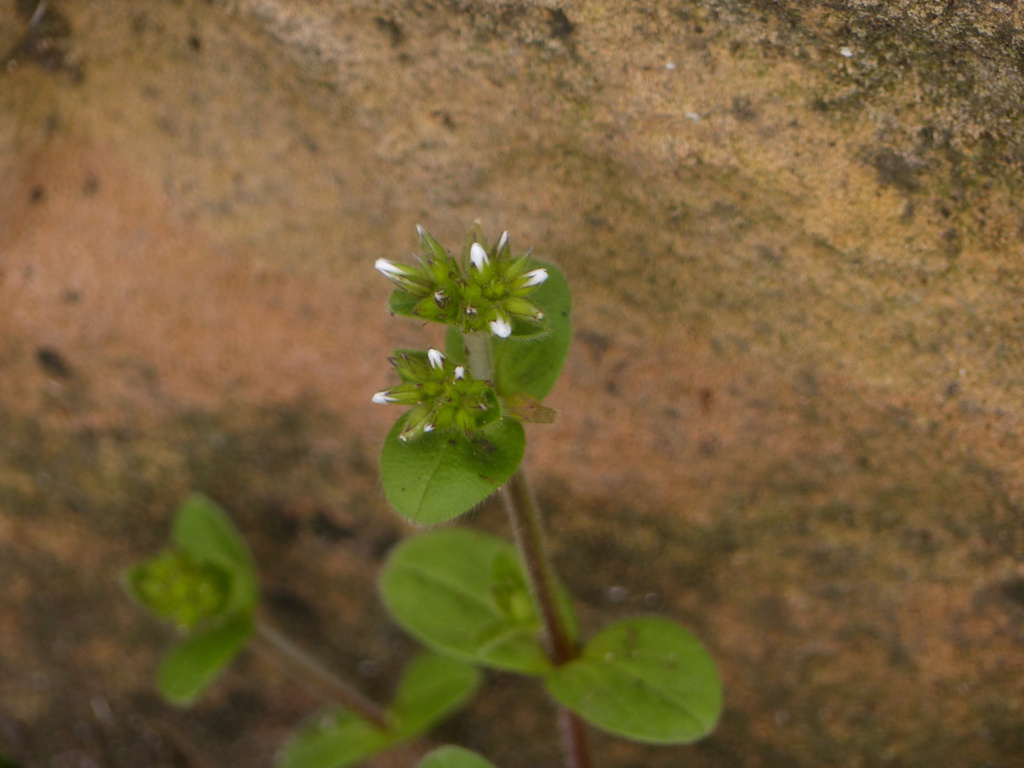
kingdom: Plantae
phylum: Tracheophyta
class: Magnoliopsida
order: Caryophyllales
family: Caryophyllaceae
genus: Cerastium
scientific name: Cerastium glomeratum
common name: Sticky chickweed
